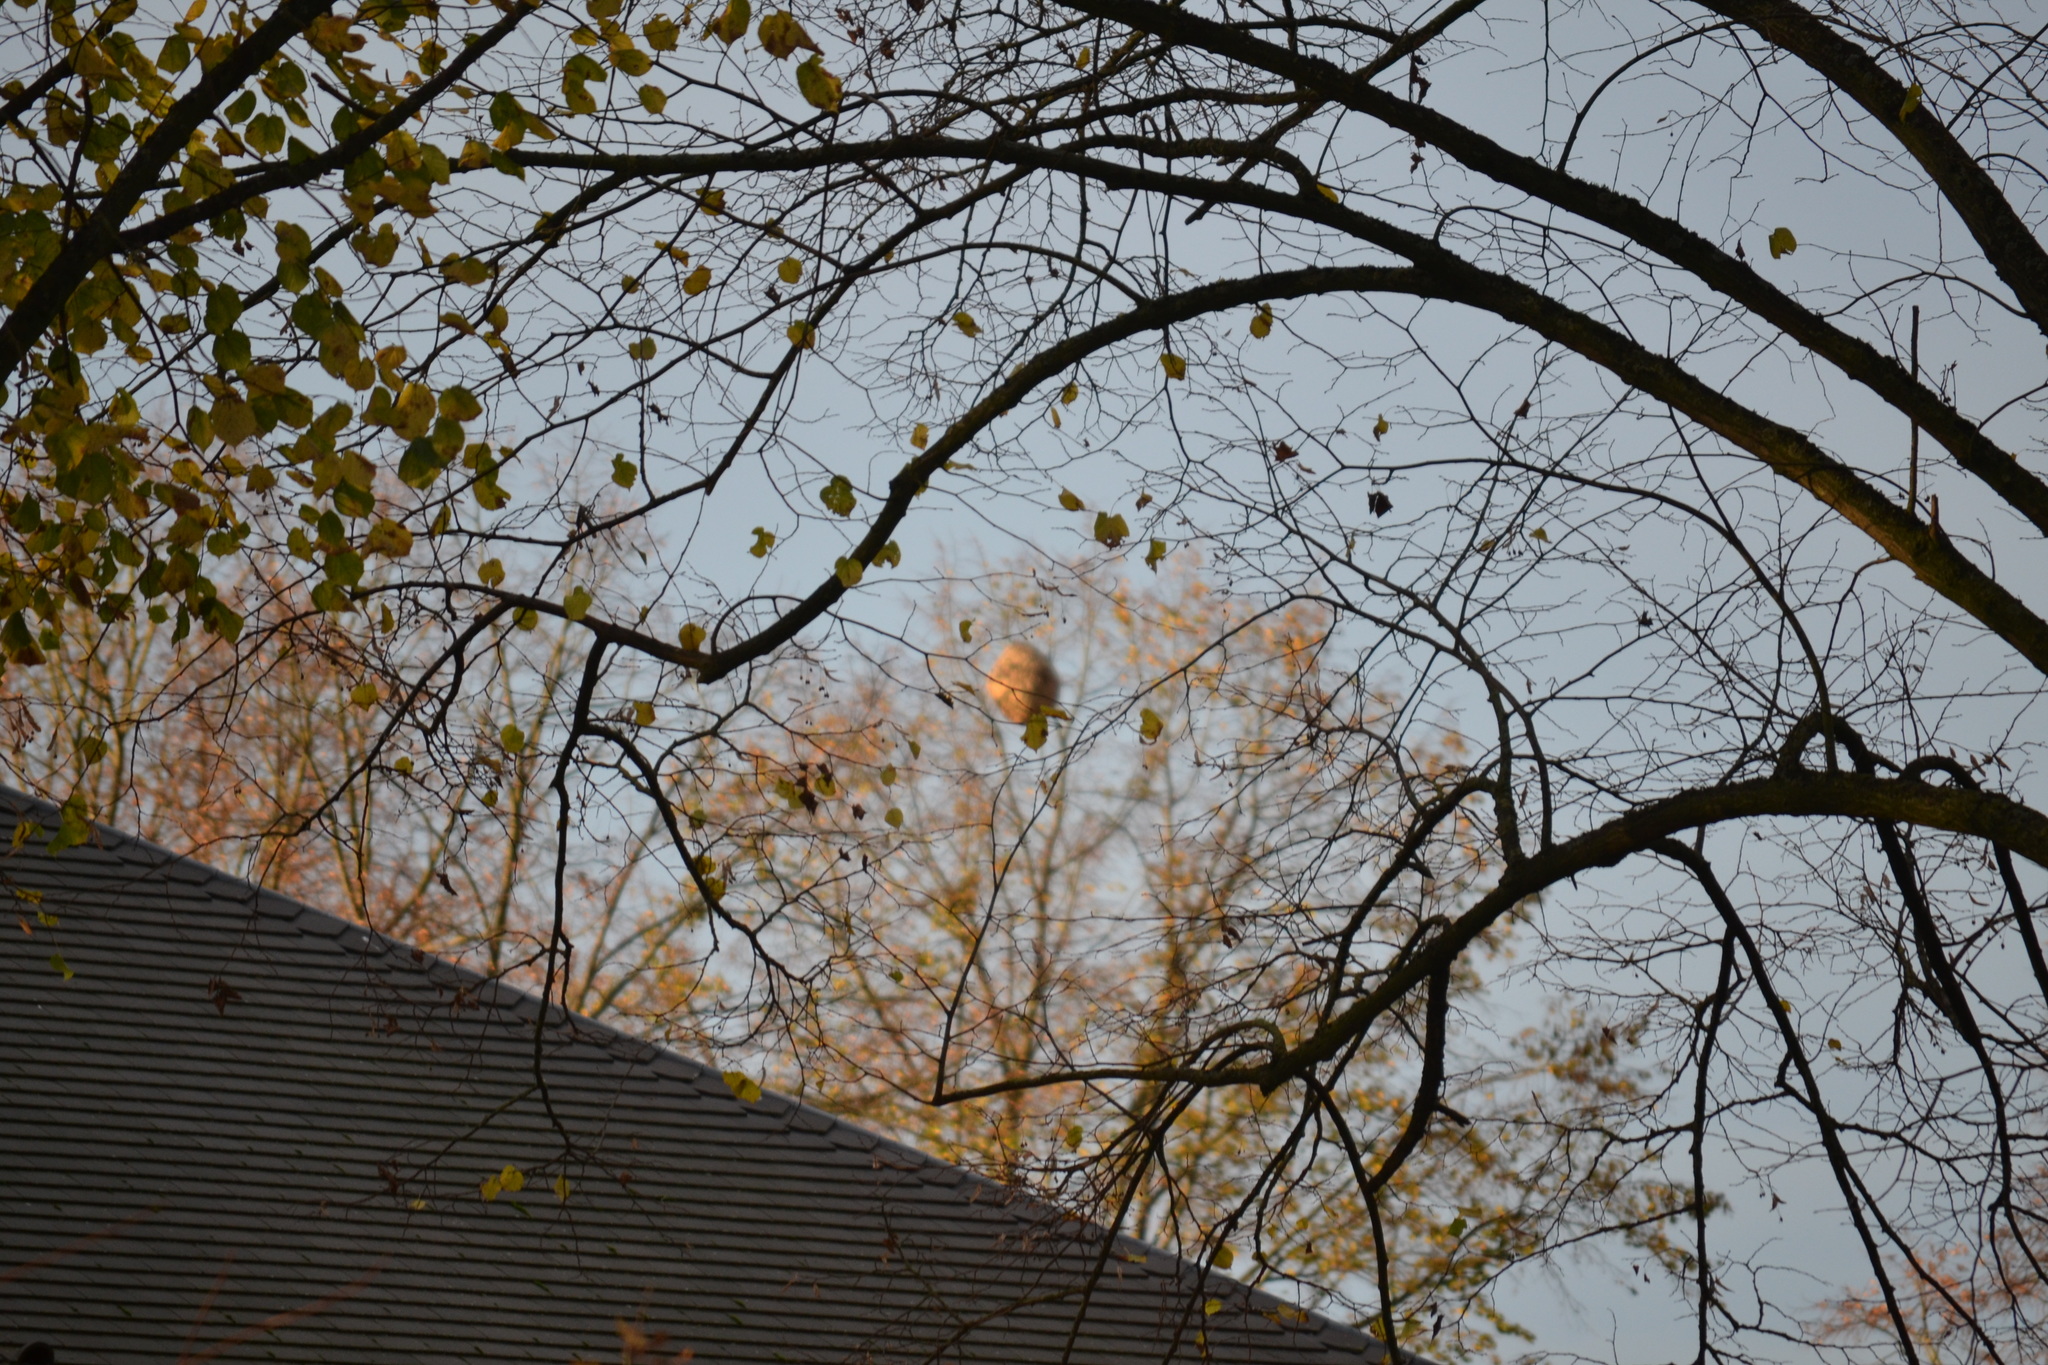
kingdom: Animalia
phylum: Arthropoda
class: Insecta
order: Hymenoptera
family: Vespidae
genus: Vespa
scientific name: Vespa velutina
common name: Asian hornet
